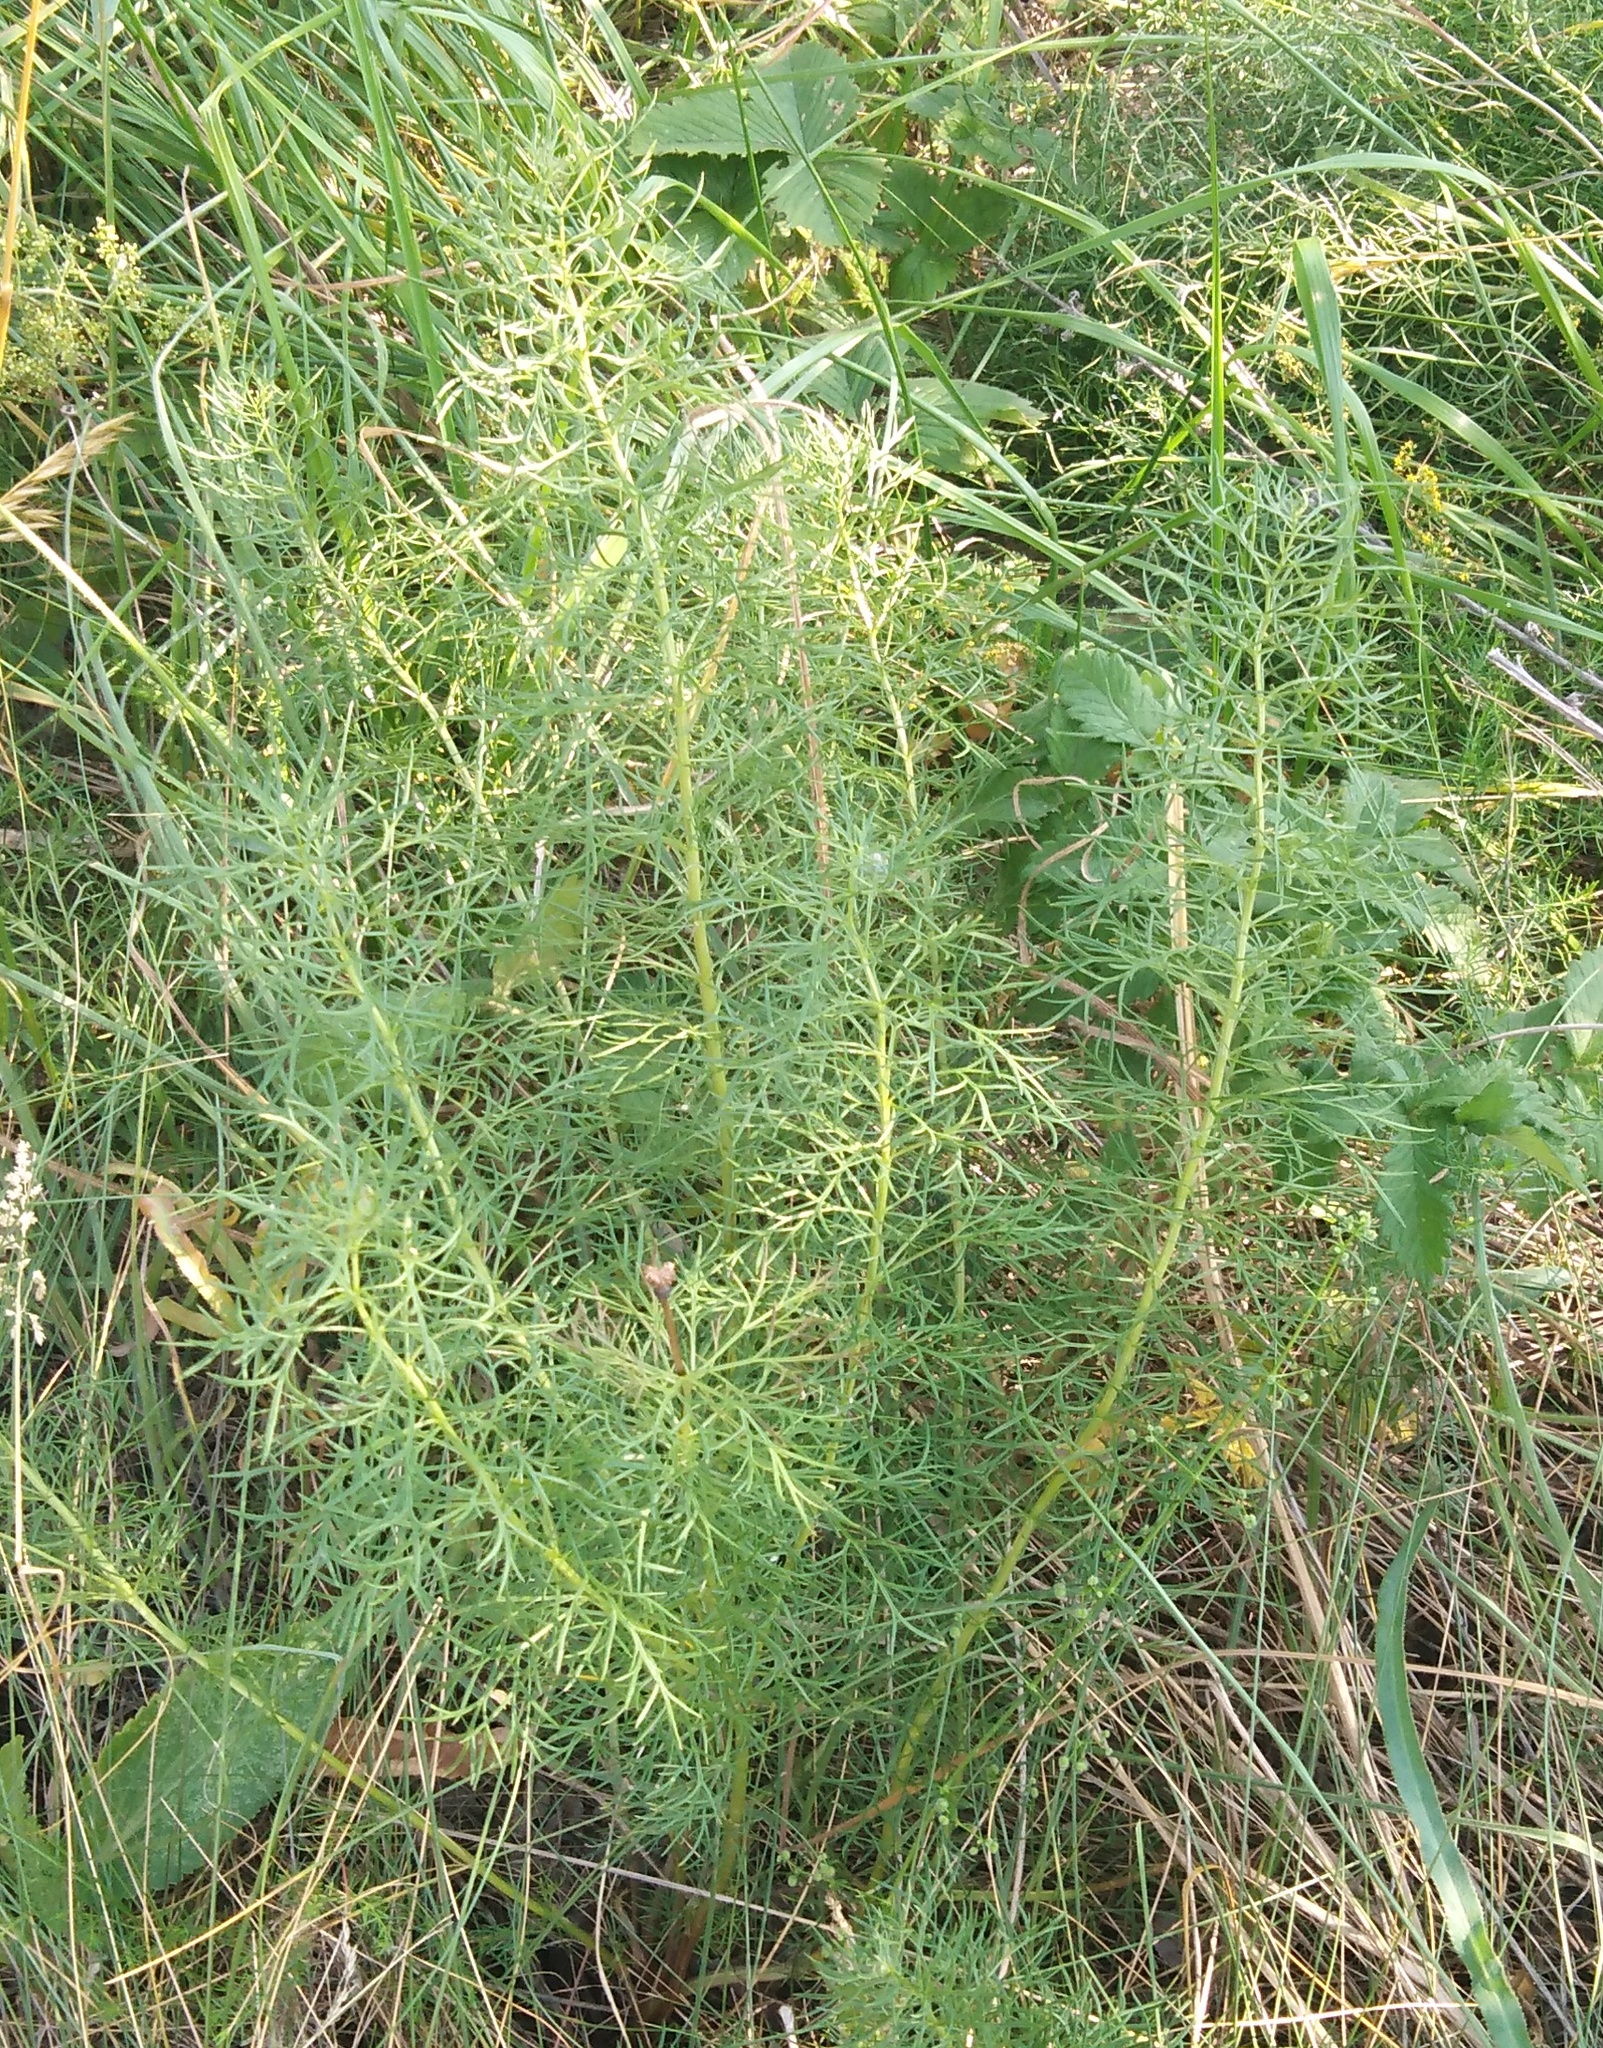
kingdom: Plantae
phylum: Tracheophyta
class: Magnoliopsida
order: Ranunculales
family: Ranunculaceae
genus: Adonis
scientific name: Adonis vernalis
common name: Yellow pheasants-eye
